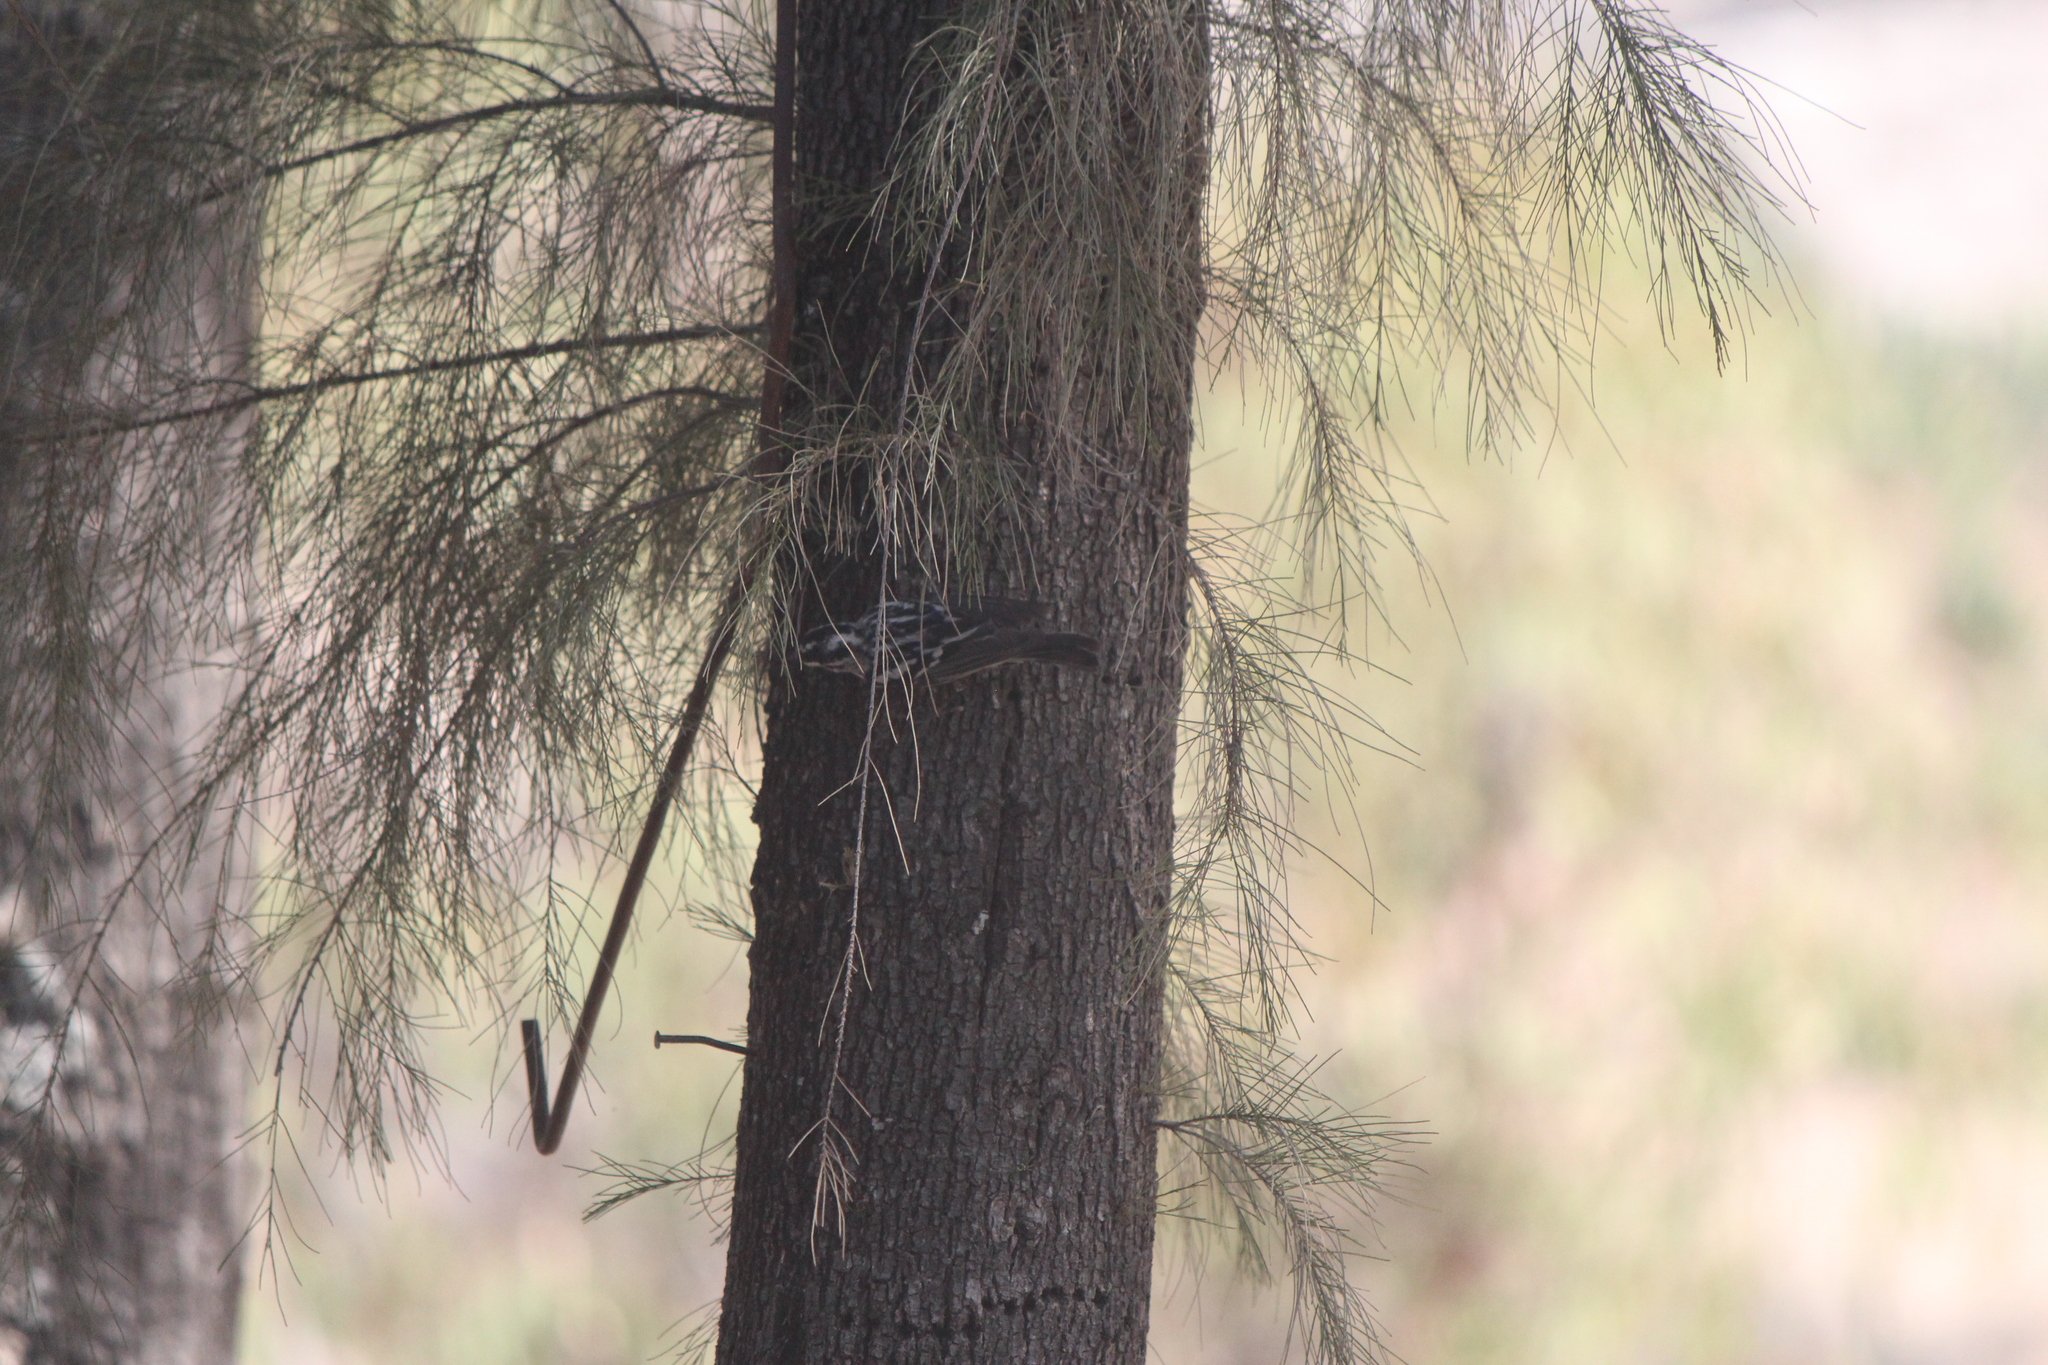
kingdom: Animalia
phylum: Chordata
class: Aves
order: Passeriformes
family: Parulidae
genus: Mniotilta
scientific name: Mniotilta varia
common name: Black-and-white warbler
